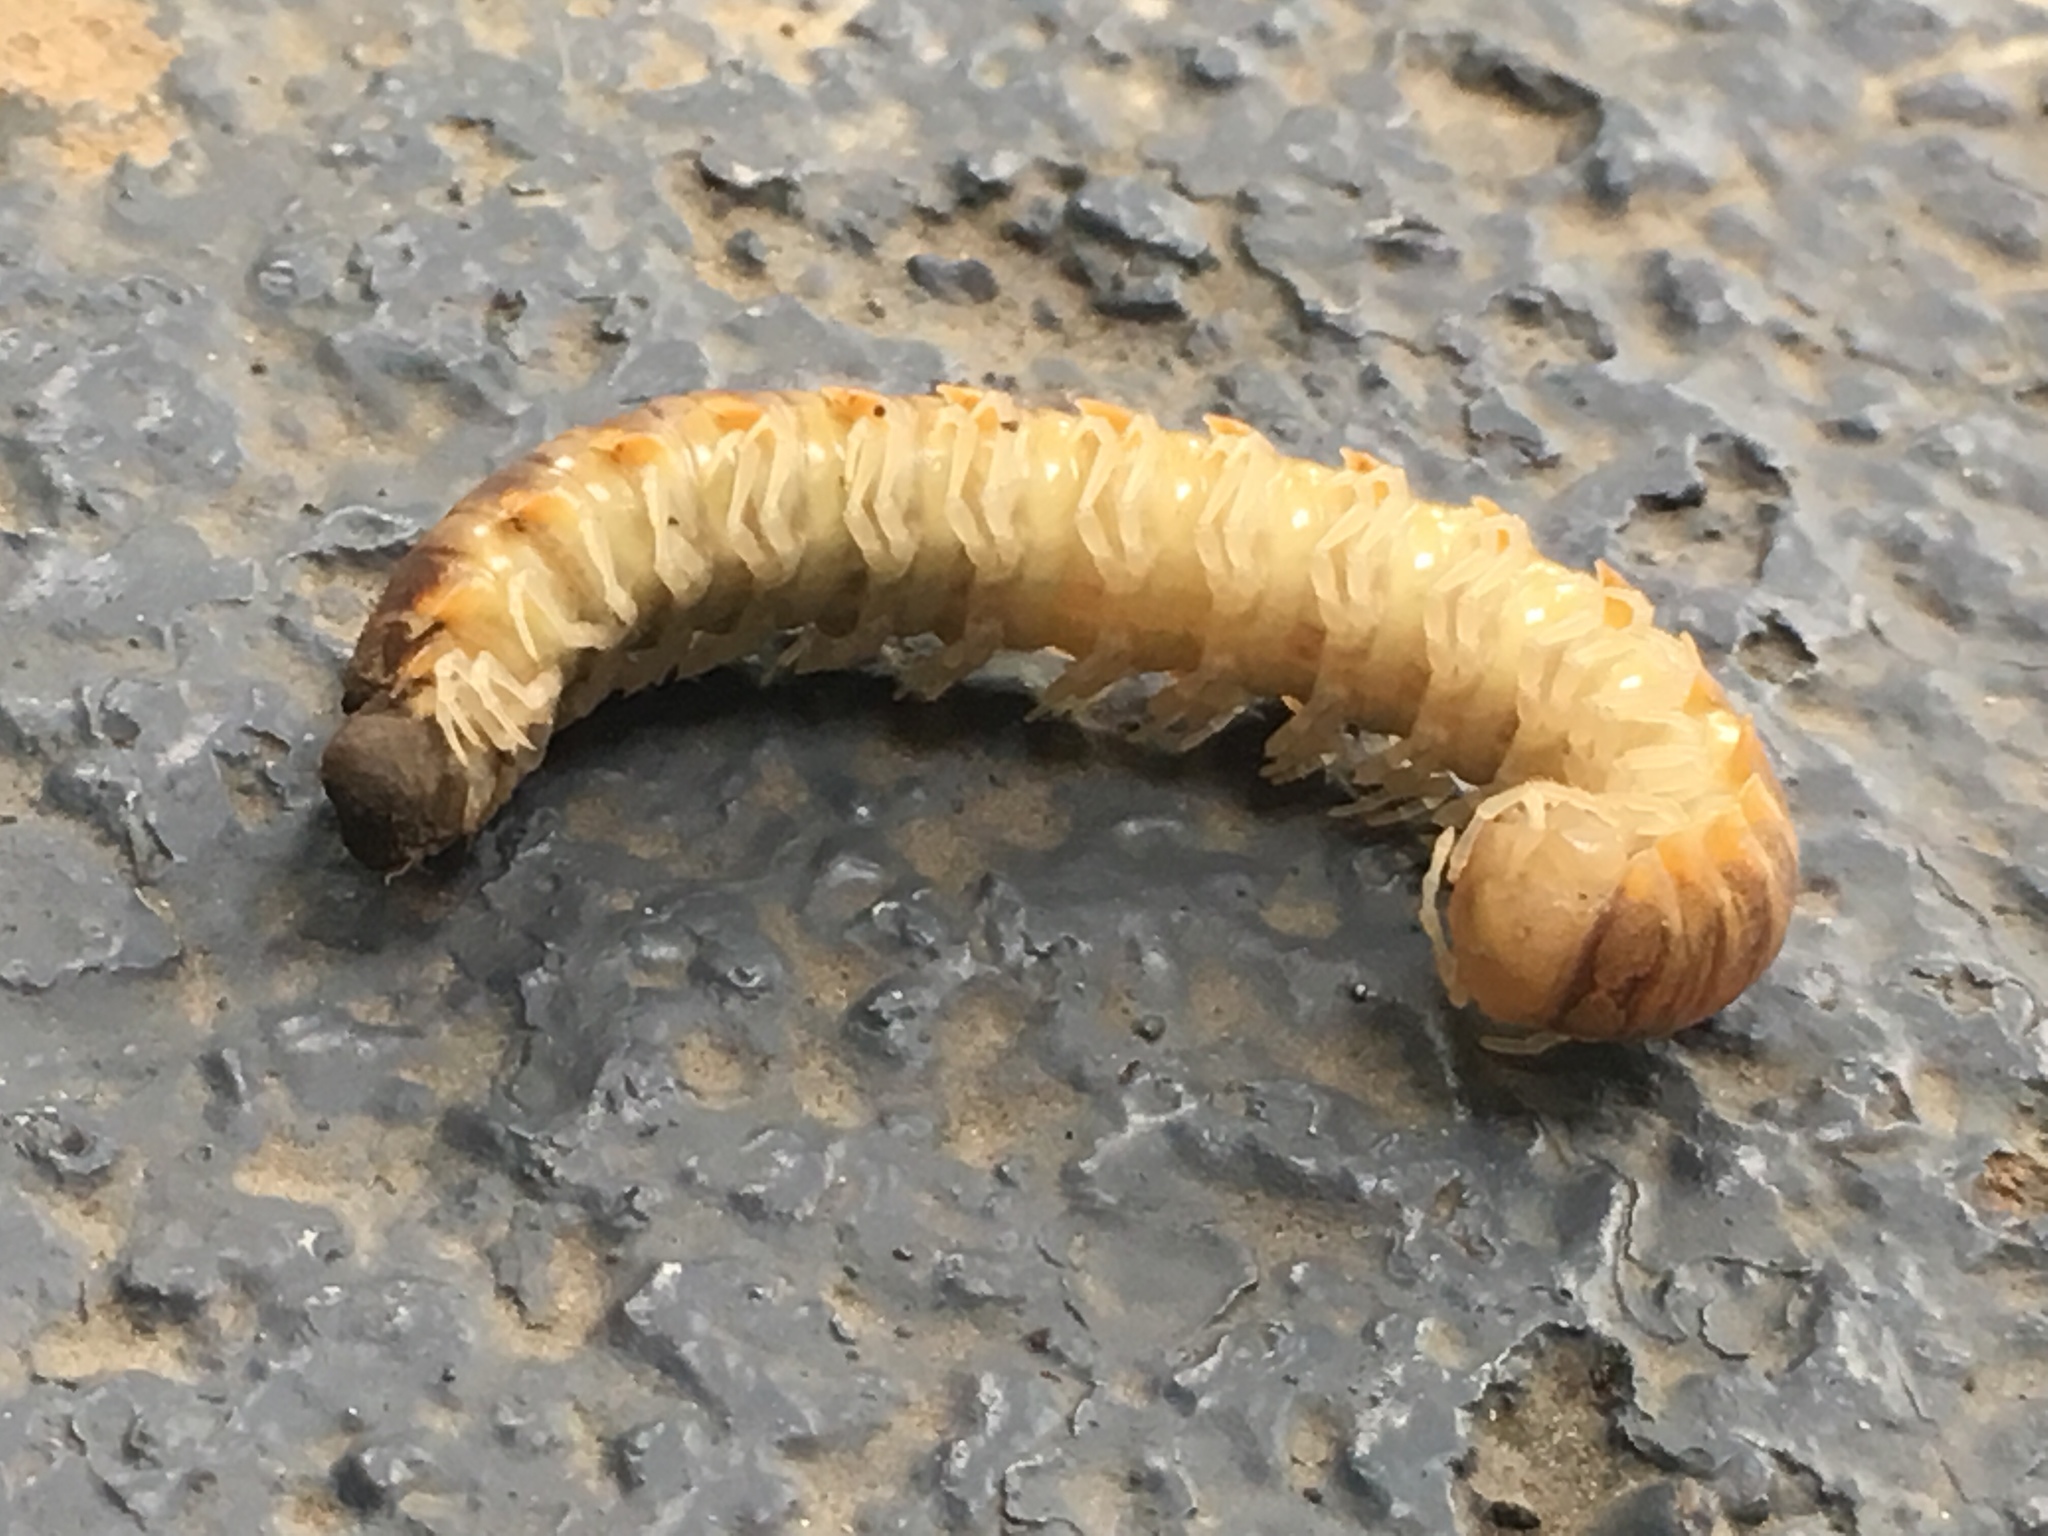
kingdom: Animalia
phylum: Arthropoda
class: Diplopoda
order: Polydesmida
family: Xystodesmidae
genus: Xystocheir
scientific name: Xystocheir dissecta
